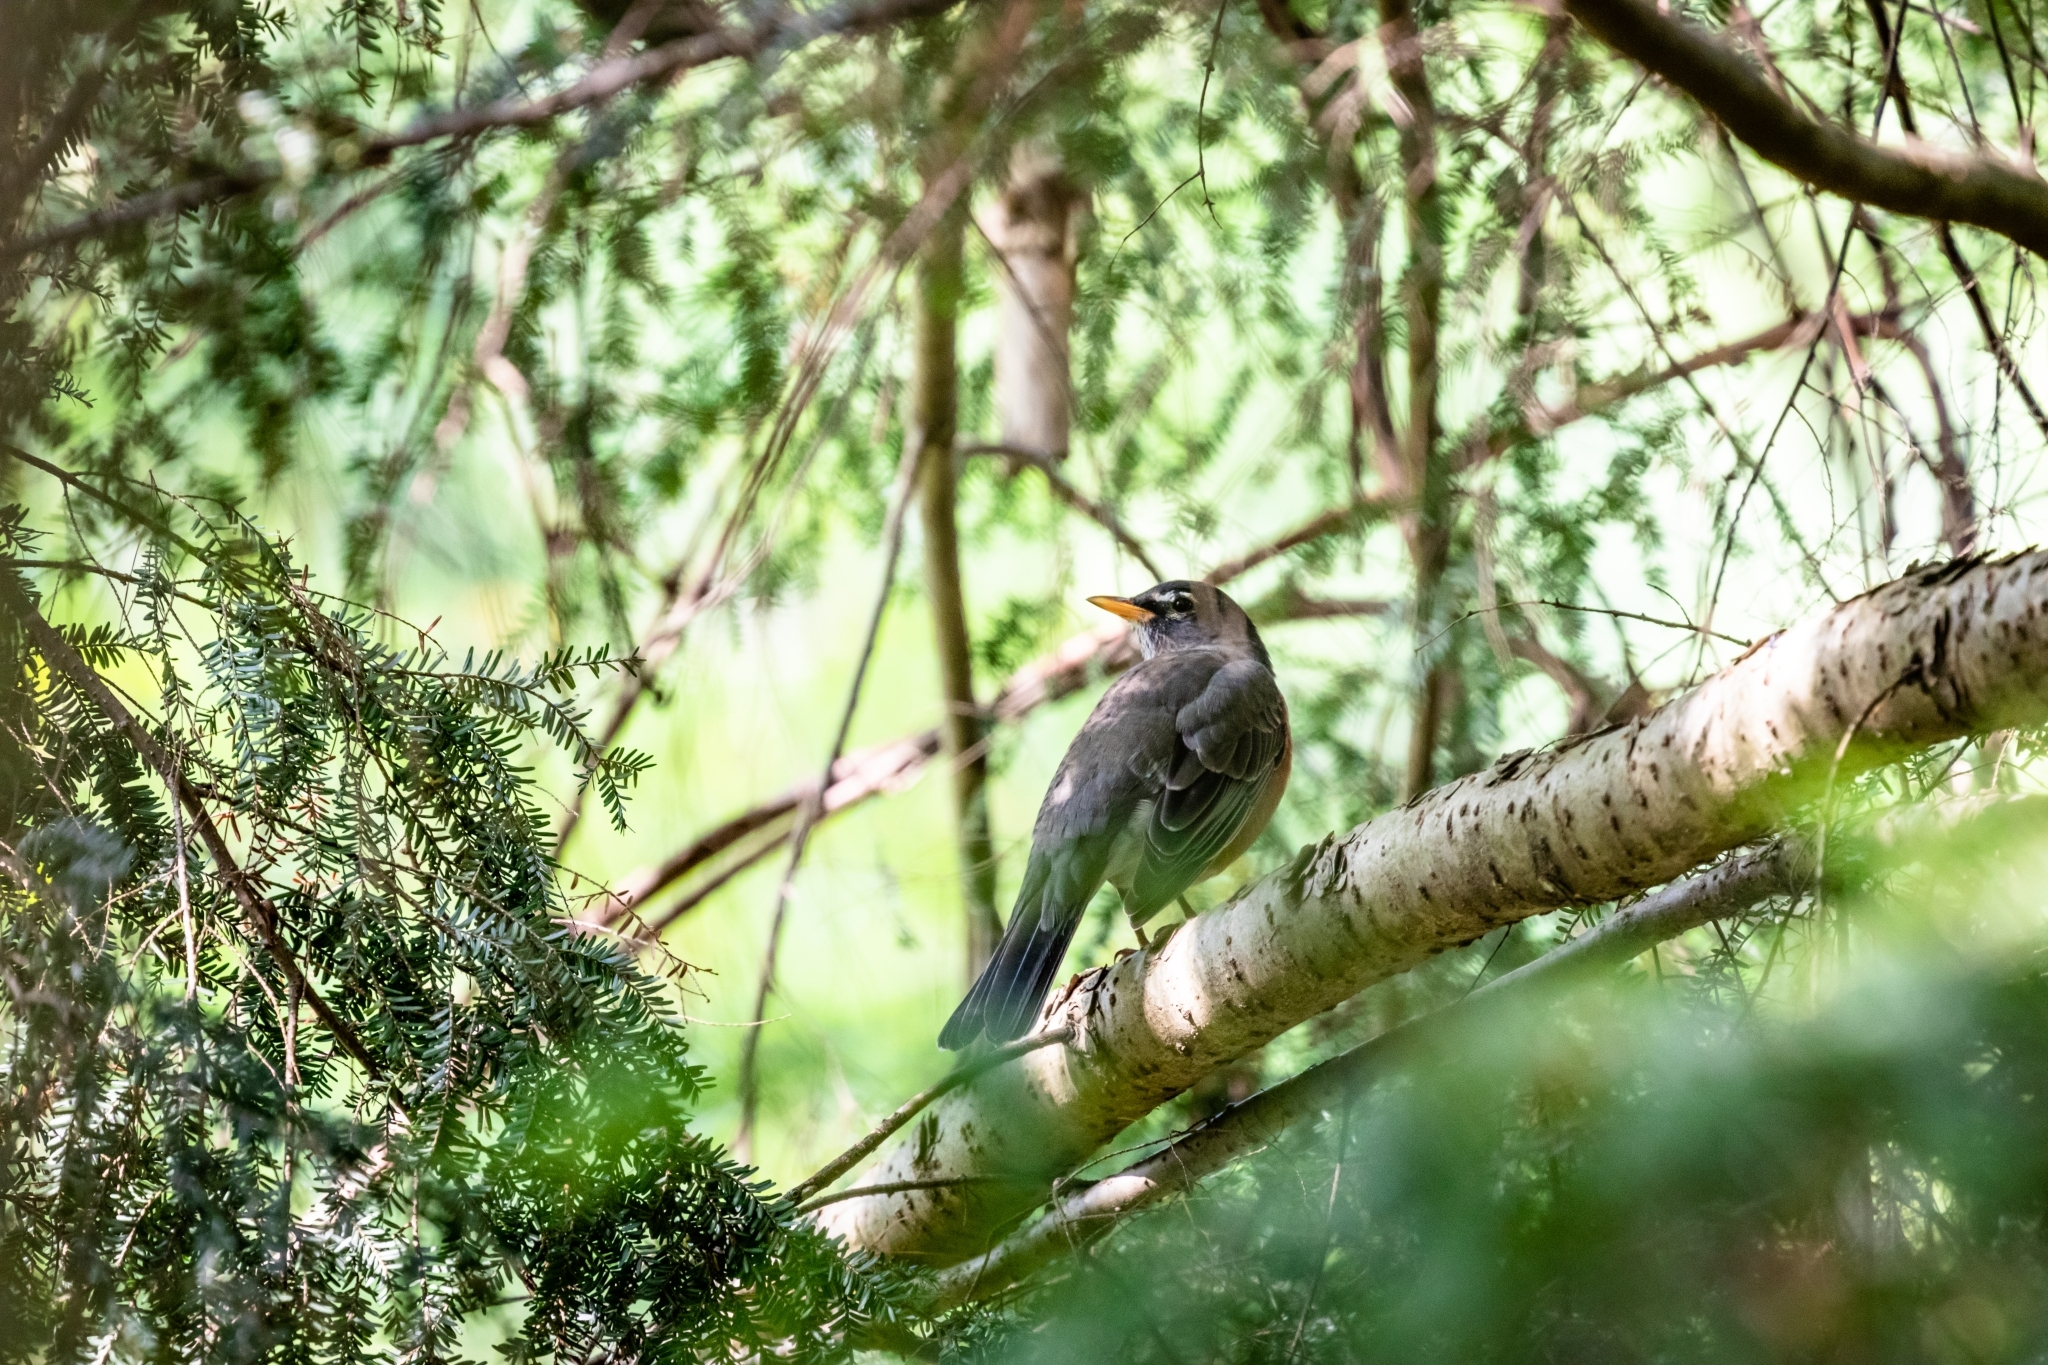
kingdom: Animalia
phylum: Chordata
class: Aves
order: Passeriformes
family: Turdidae
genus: Turdus
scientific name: Turdus migratorius
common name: American robin
